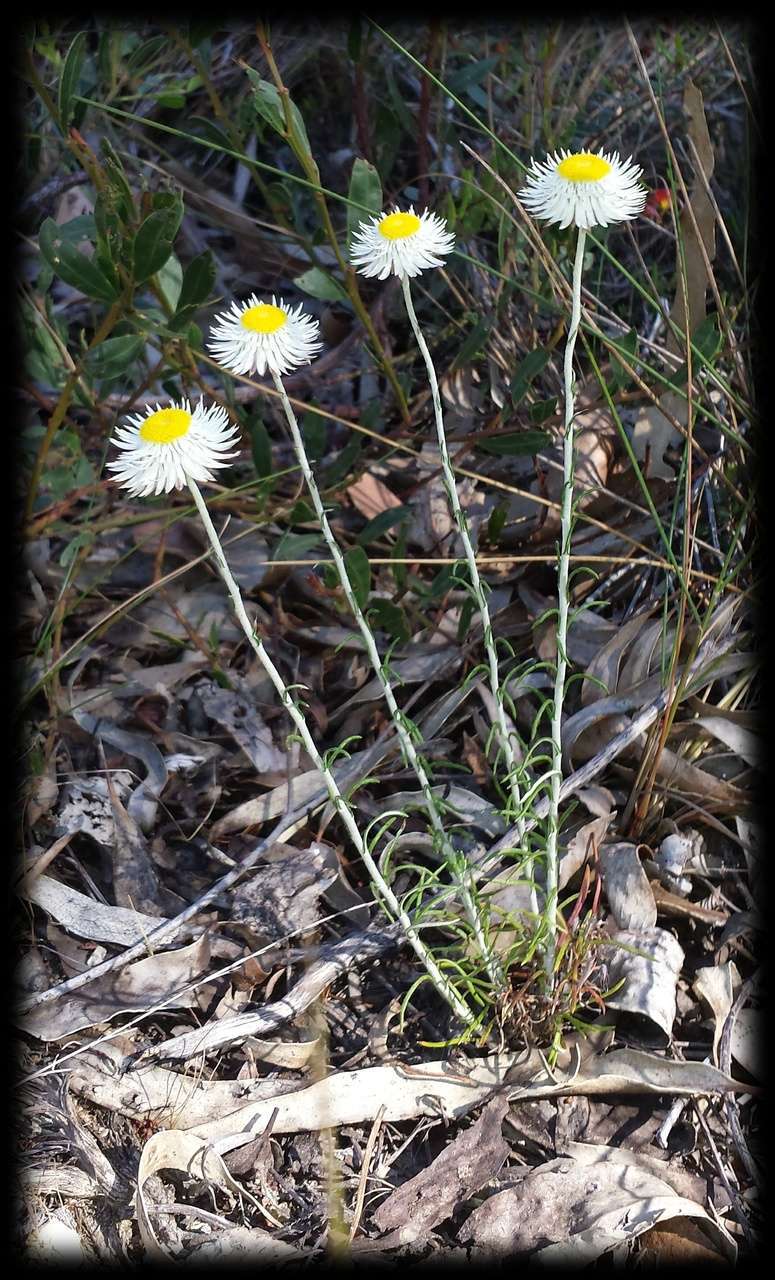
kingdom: Plantae
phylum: Tracheophyta
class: Magnoliopsida
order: Asterales
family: Asteraceae
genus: Chrysocephalum
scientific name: Chrysocephalum baxteri
